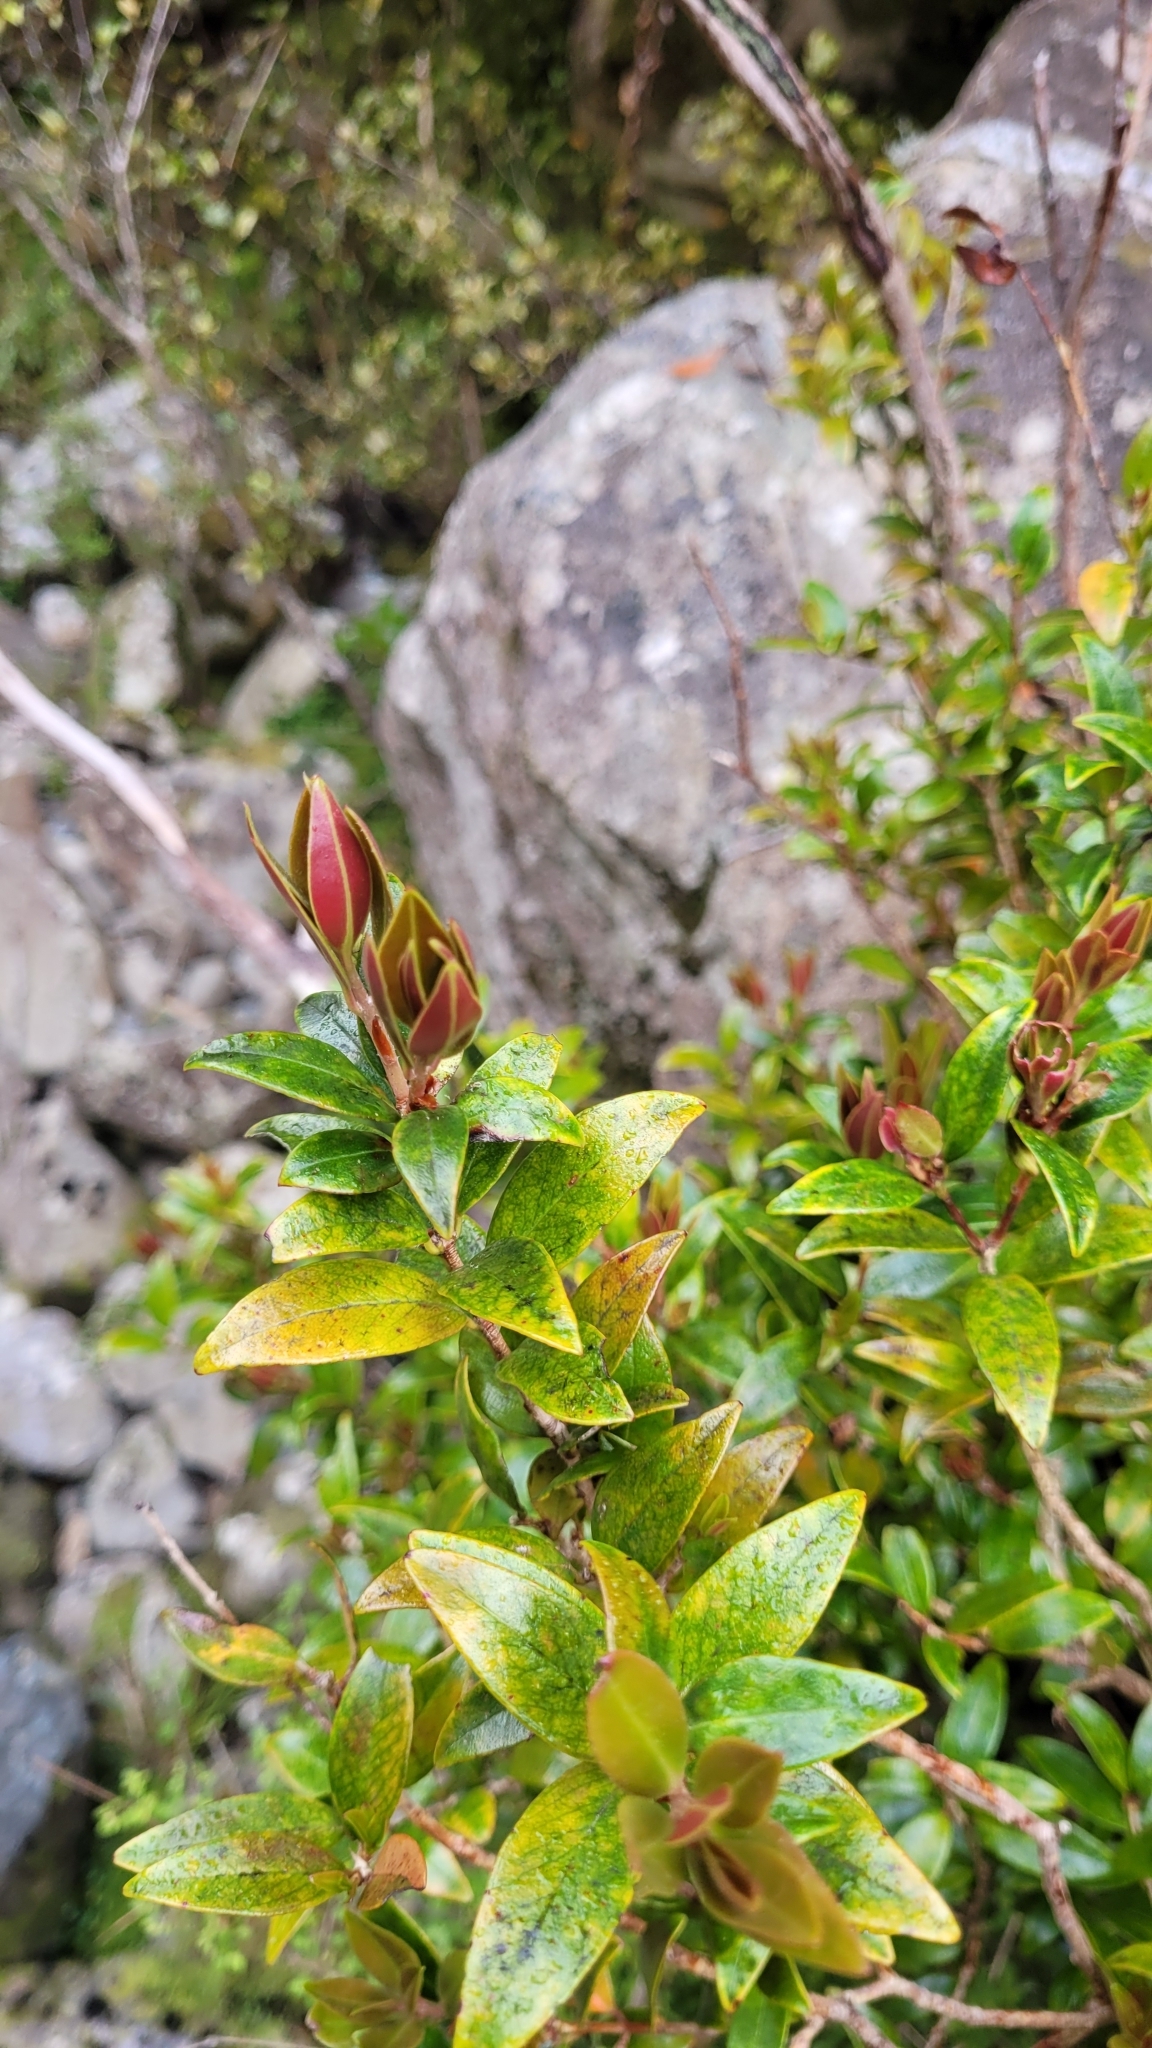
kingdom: Plantae
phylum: Tracheophyta
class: Magnoliopsida
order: Myrtales
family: Myrtaceae
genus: Metrosideros
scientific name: Metrosideros umbellata
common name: Southern rata
